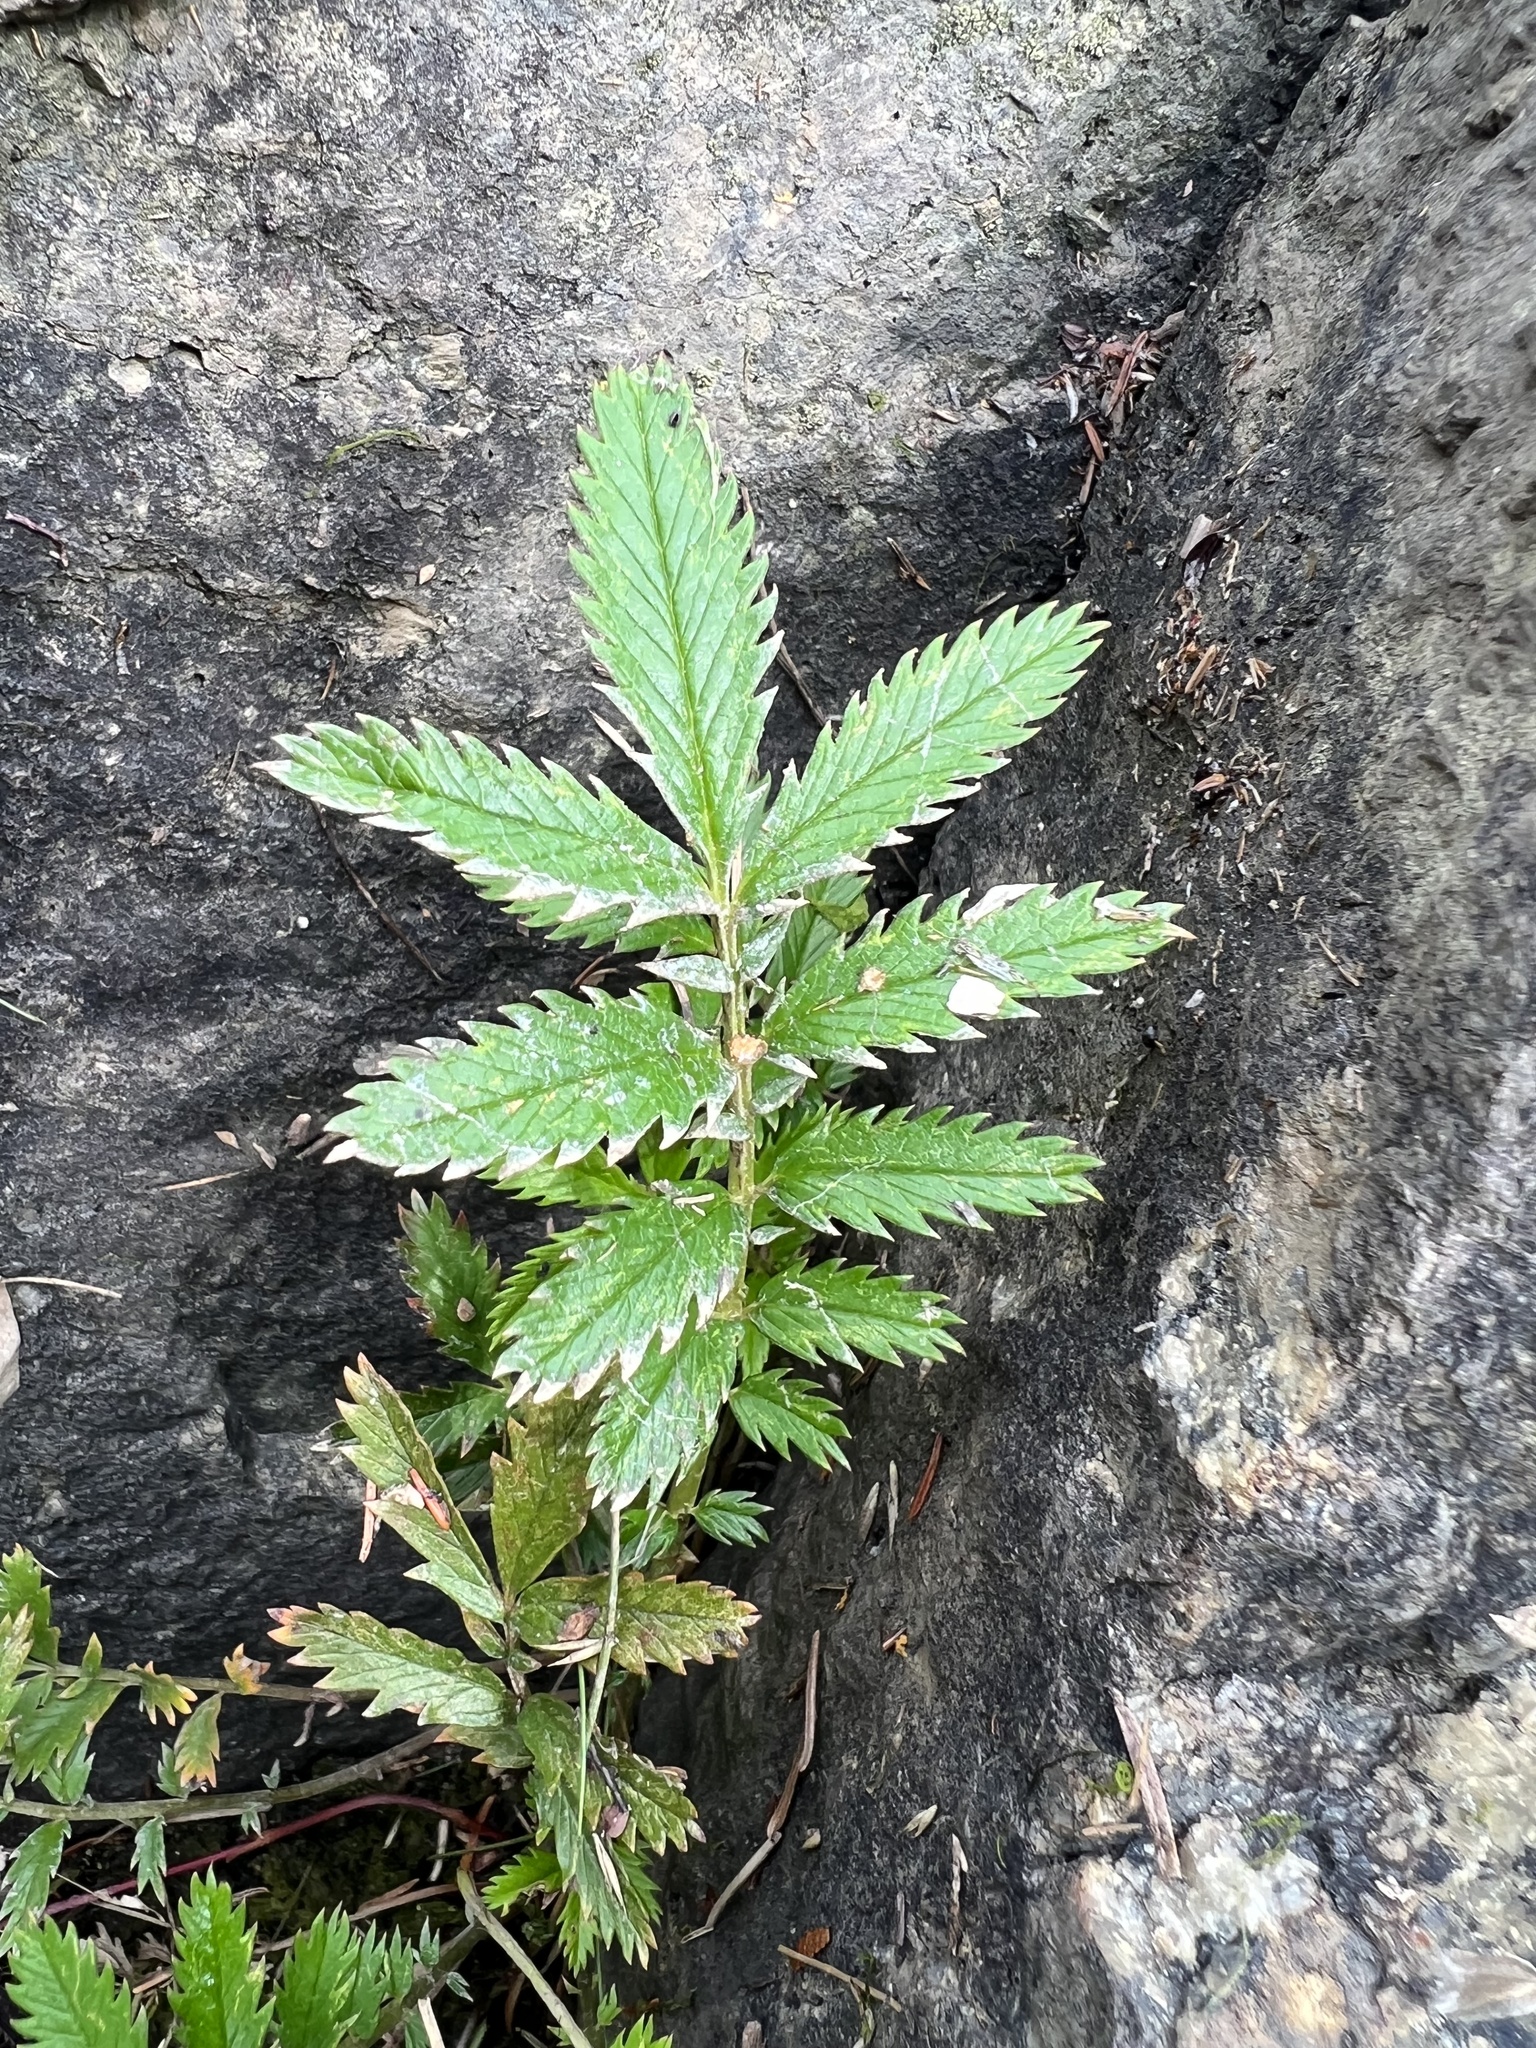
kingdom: Plantae
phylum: Tracheophyta
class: Magnoliopsida
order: Rosales
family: Rosaceae
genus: Argentina
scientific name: Argentina anserina
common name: Common silverweed
